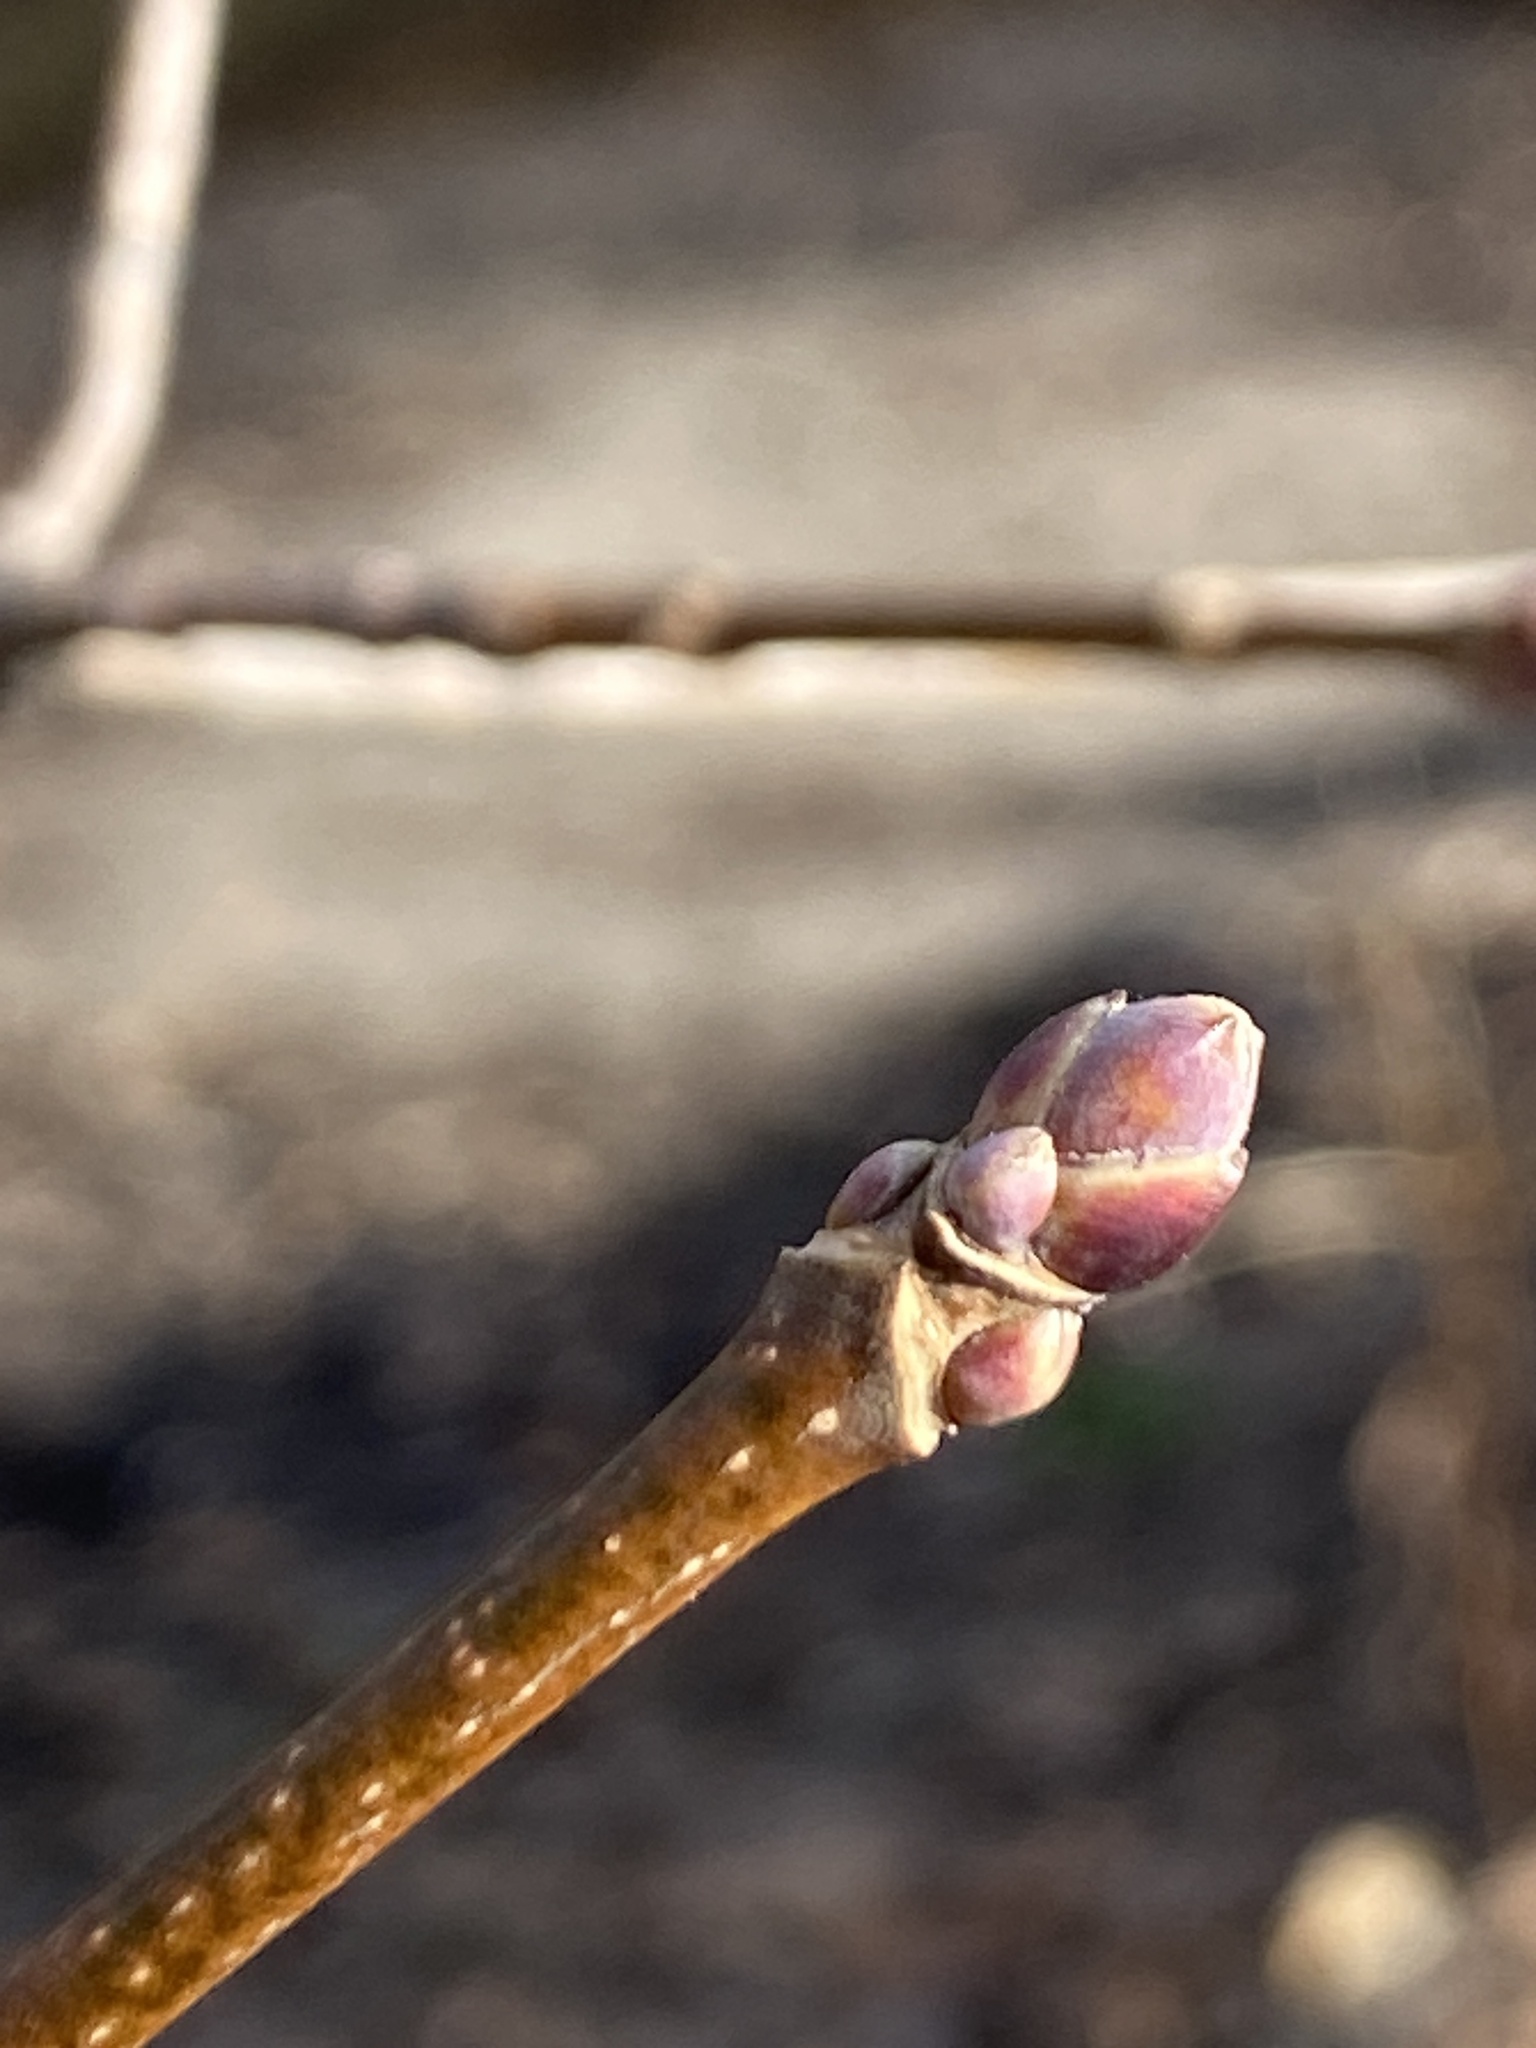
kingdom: Plantae
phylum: Tracheophyta
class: Magnoliopsida
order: Sapindales
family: Sapindaceae
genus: Acer
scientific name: Acer platanoides
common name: Norway maple
